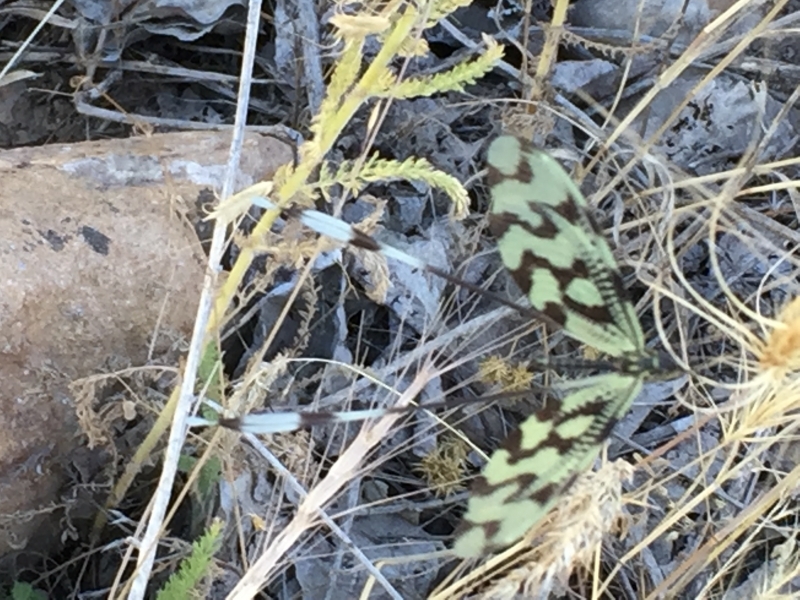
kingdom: Animalia
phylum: Arthropoda
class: Insecta
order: Neuroptera
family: Nemopteridae
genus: Nemoptera
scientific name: Nemoptera sinuata
